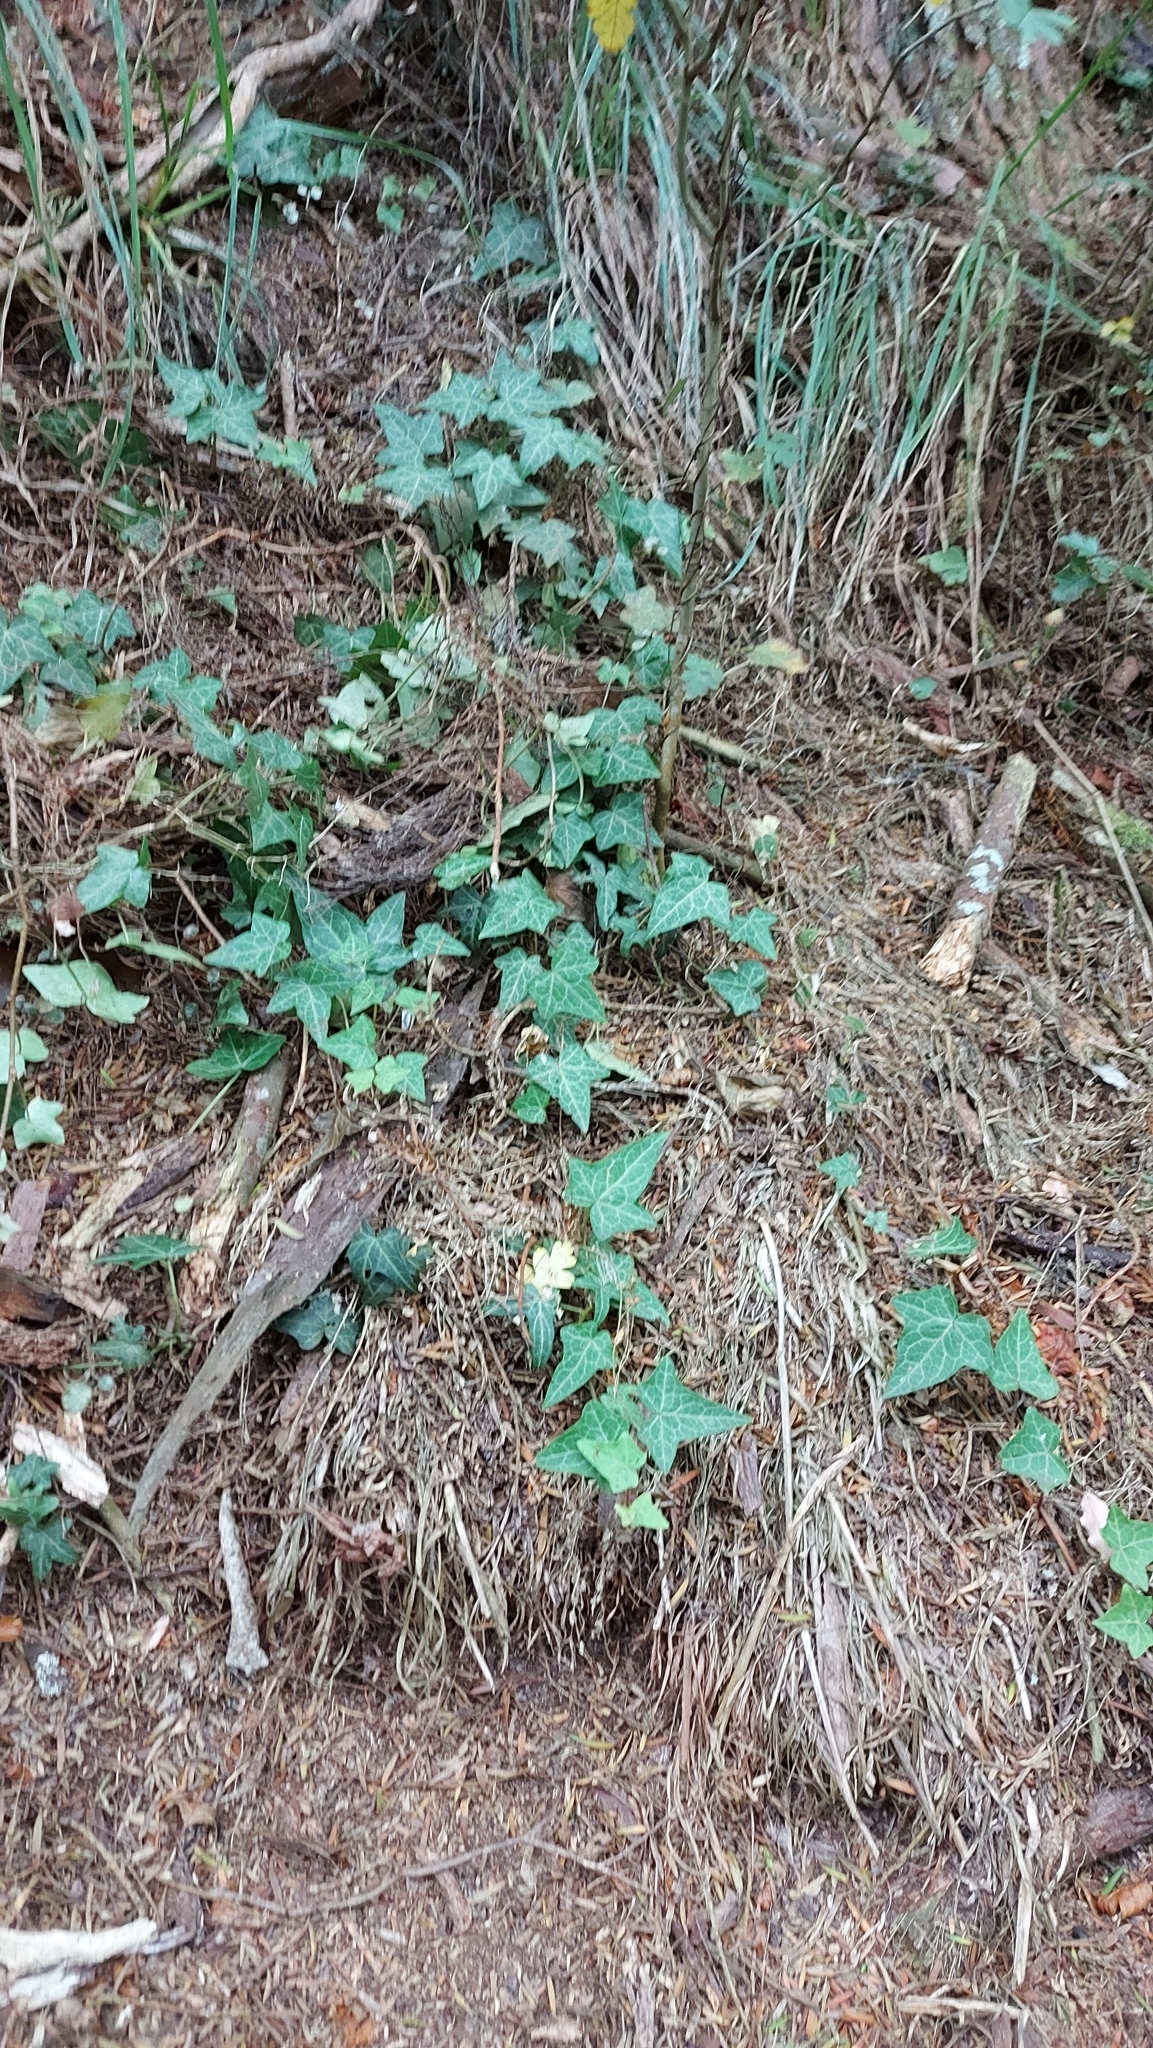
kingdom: Plantae
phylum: Tracheophyta
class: Magnoliopsida
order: Apiales
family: Araliaceae
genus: Hedera
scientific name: Hedera helix
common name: Ivy
